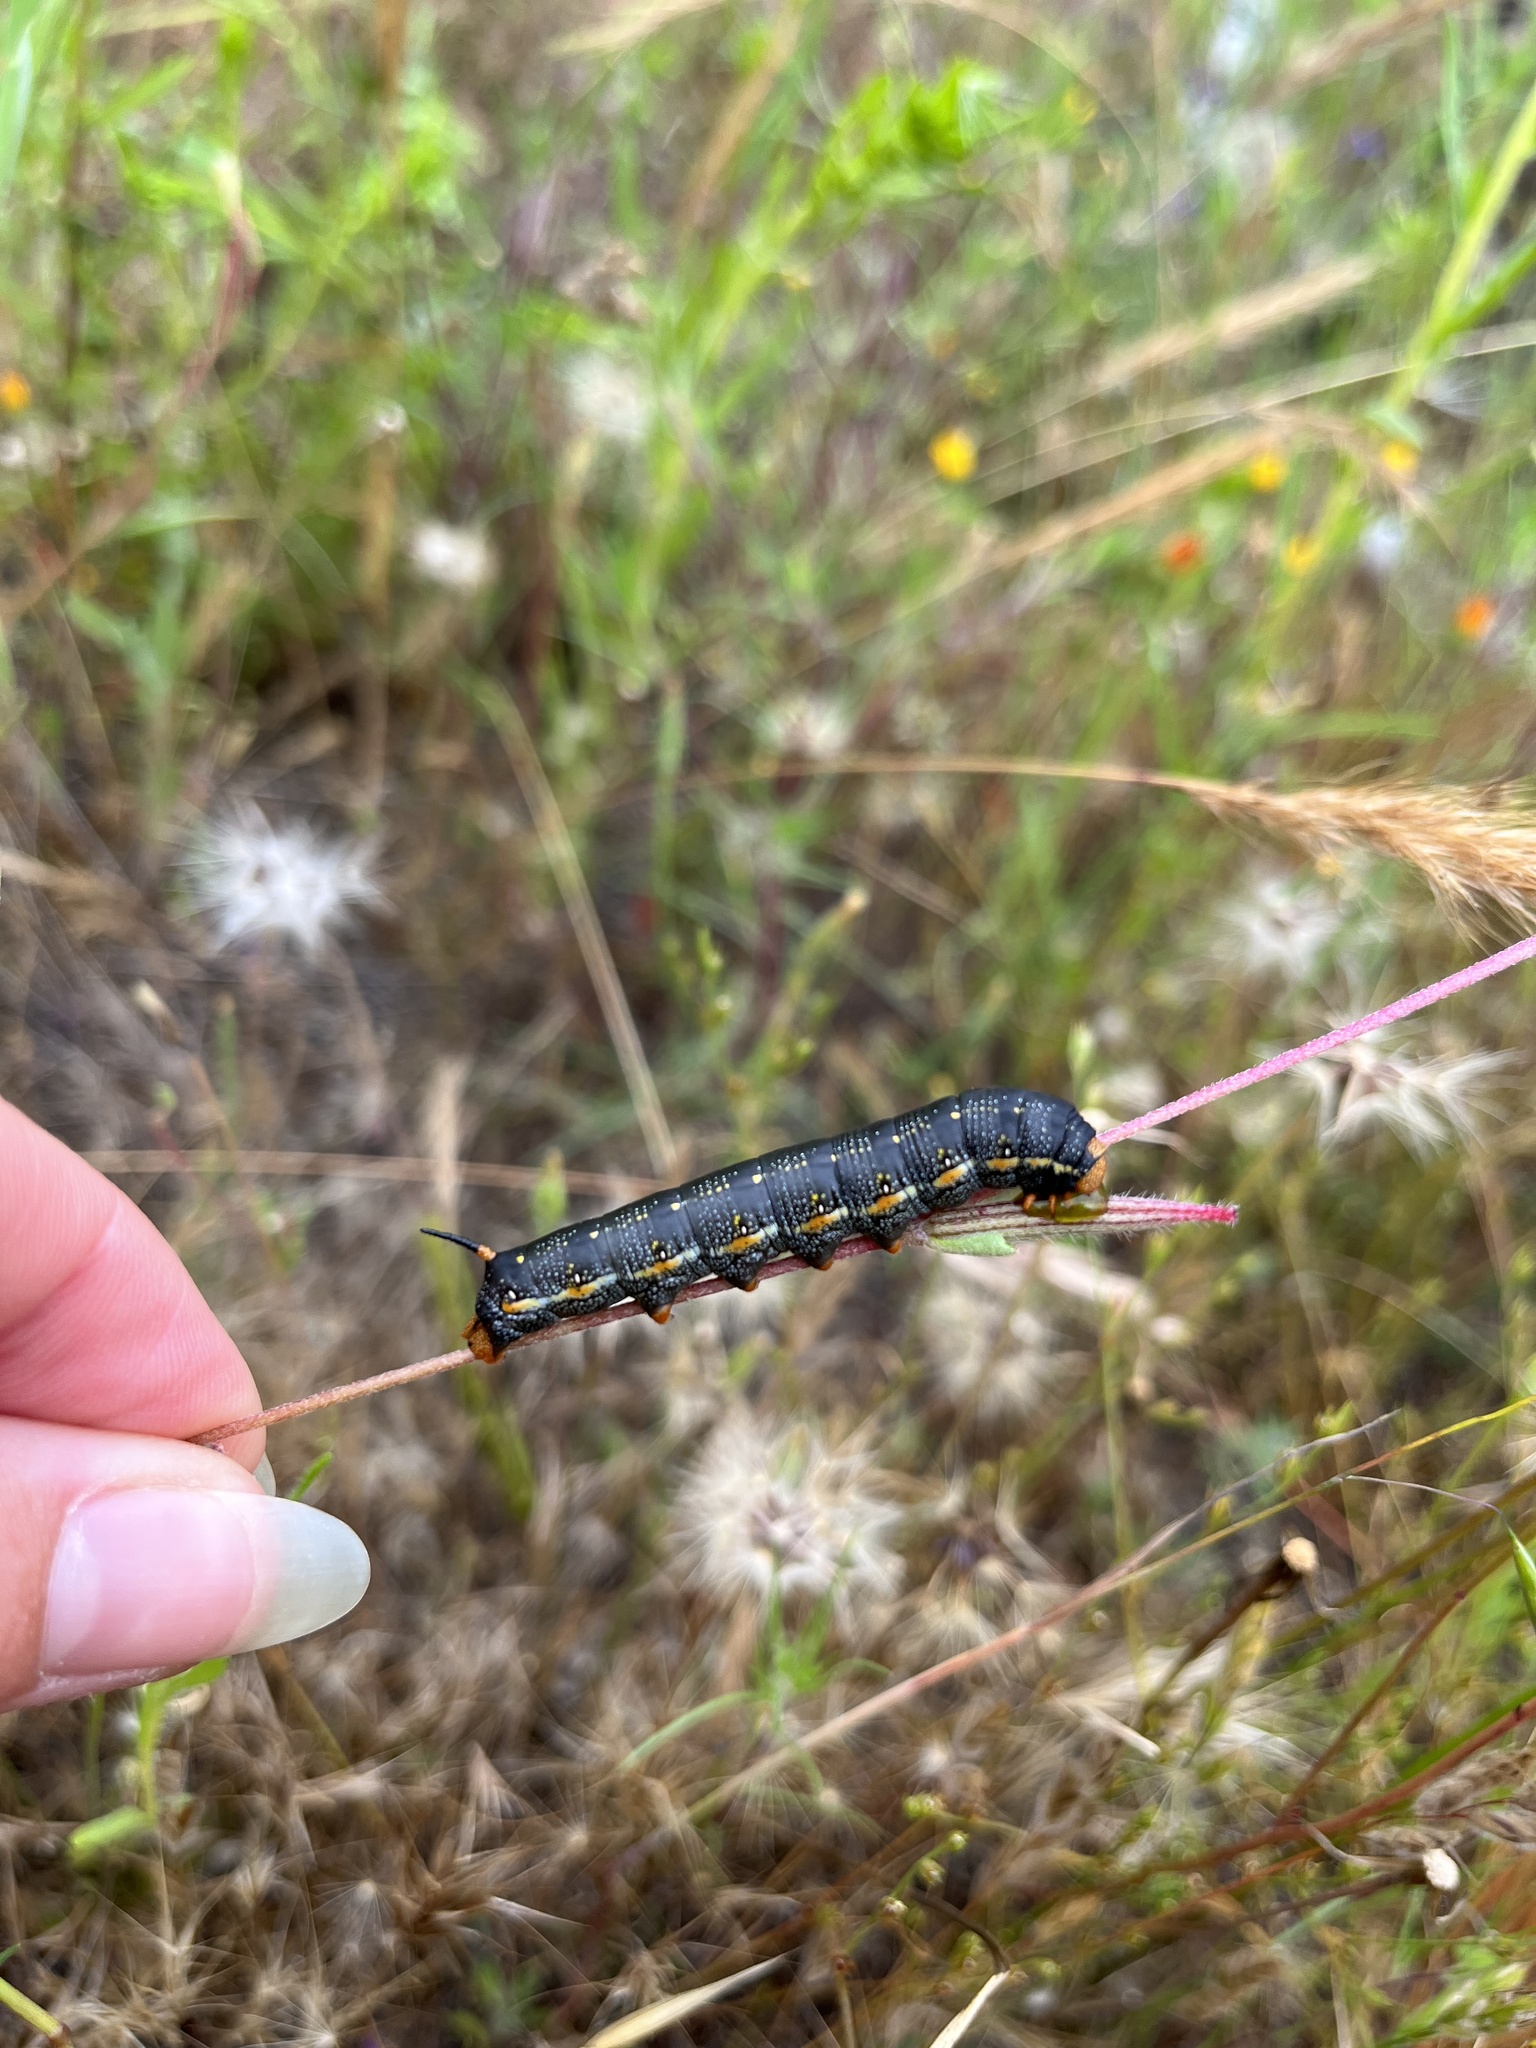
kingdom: Animalia
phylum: Arthropoda
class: Insecta
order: Lepidoptera
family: Sphingidae
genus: Hyles
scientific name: Hyles lineata
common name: White-lined sphinx
